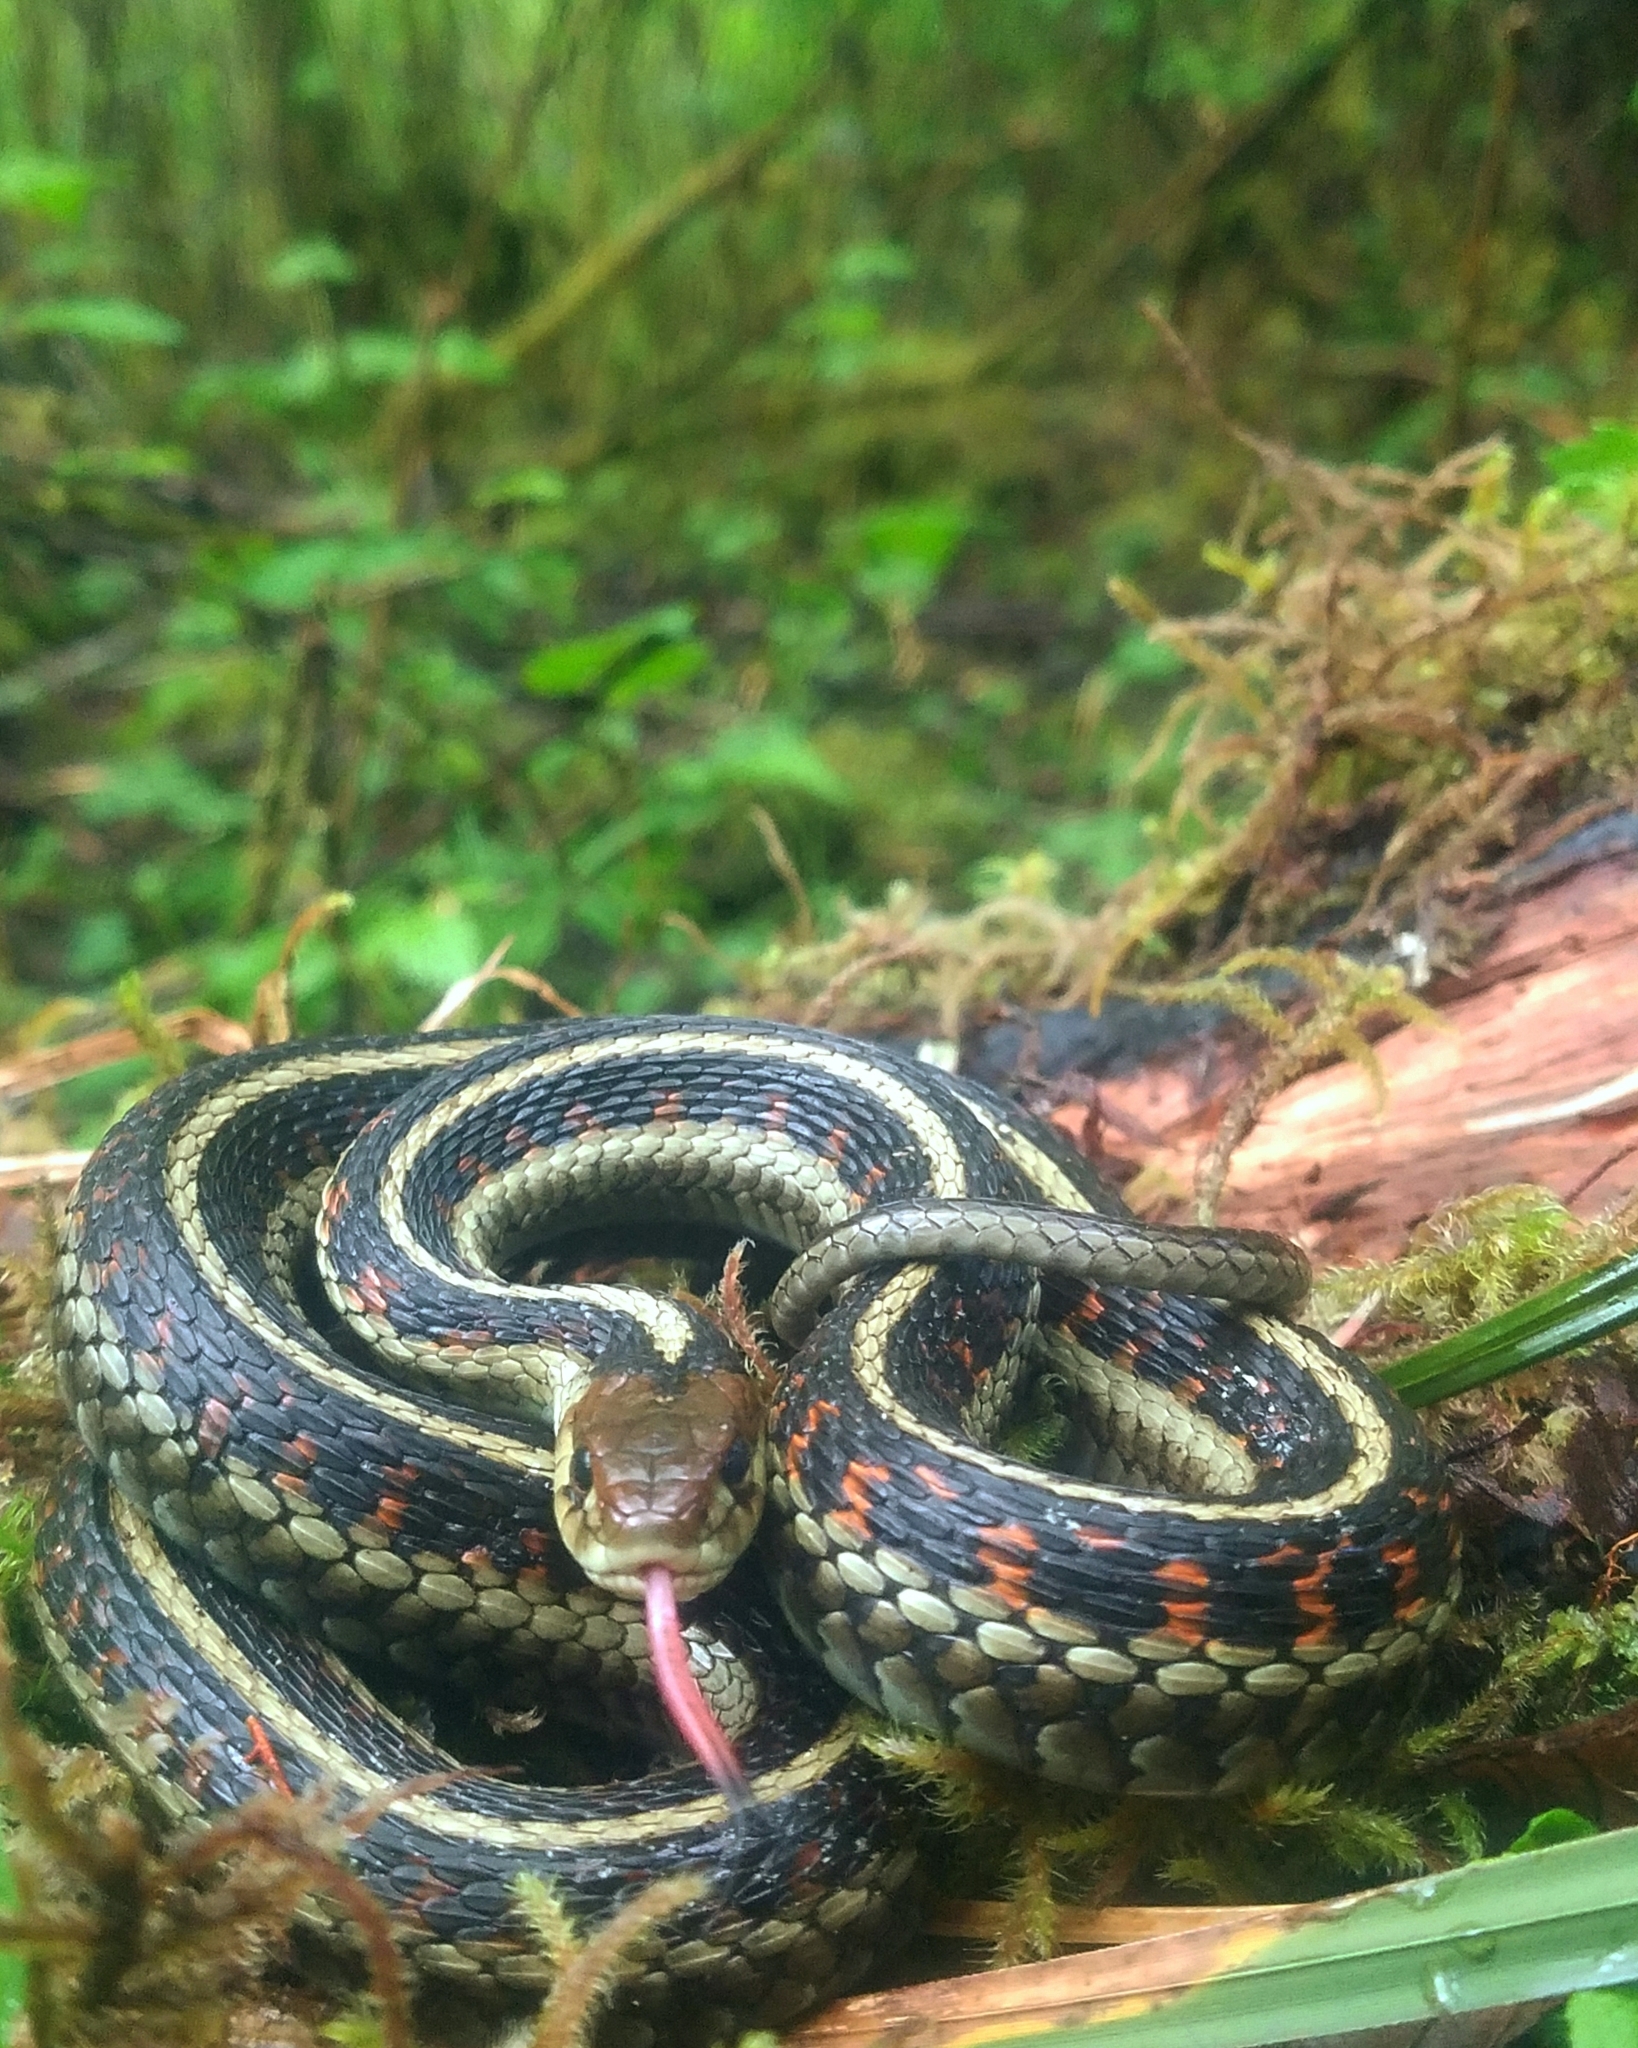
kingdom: Animalia
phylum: Chordata
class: Squamata
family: Colubridae
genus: Thamnophis
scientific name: Thamnophis sirtalis
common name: Common garter snake
